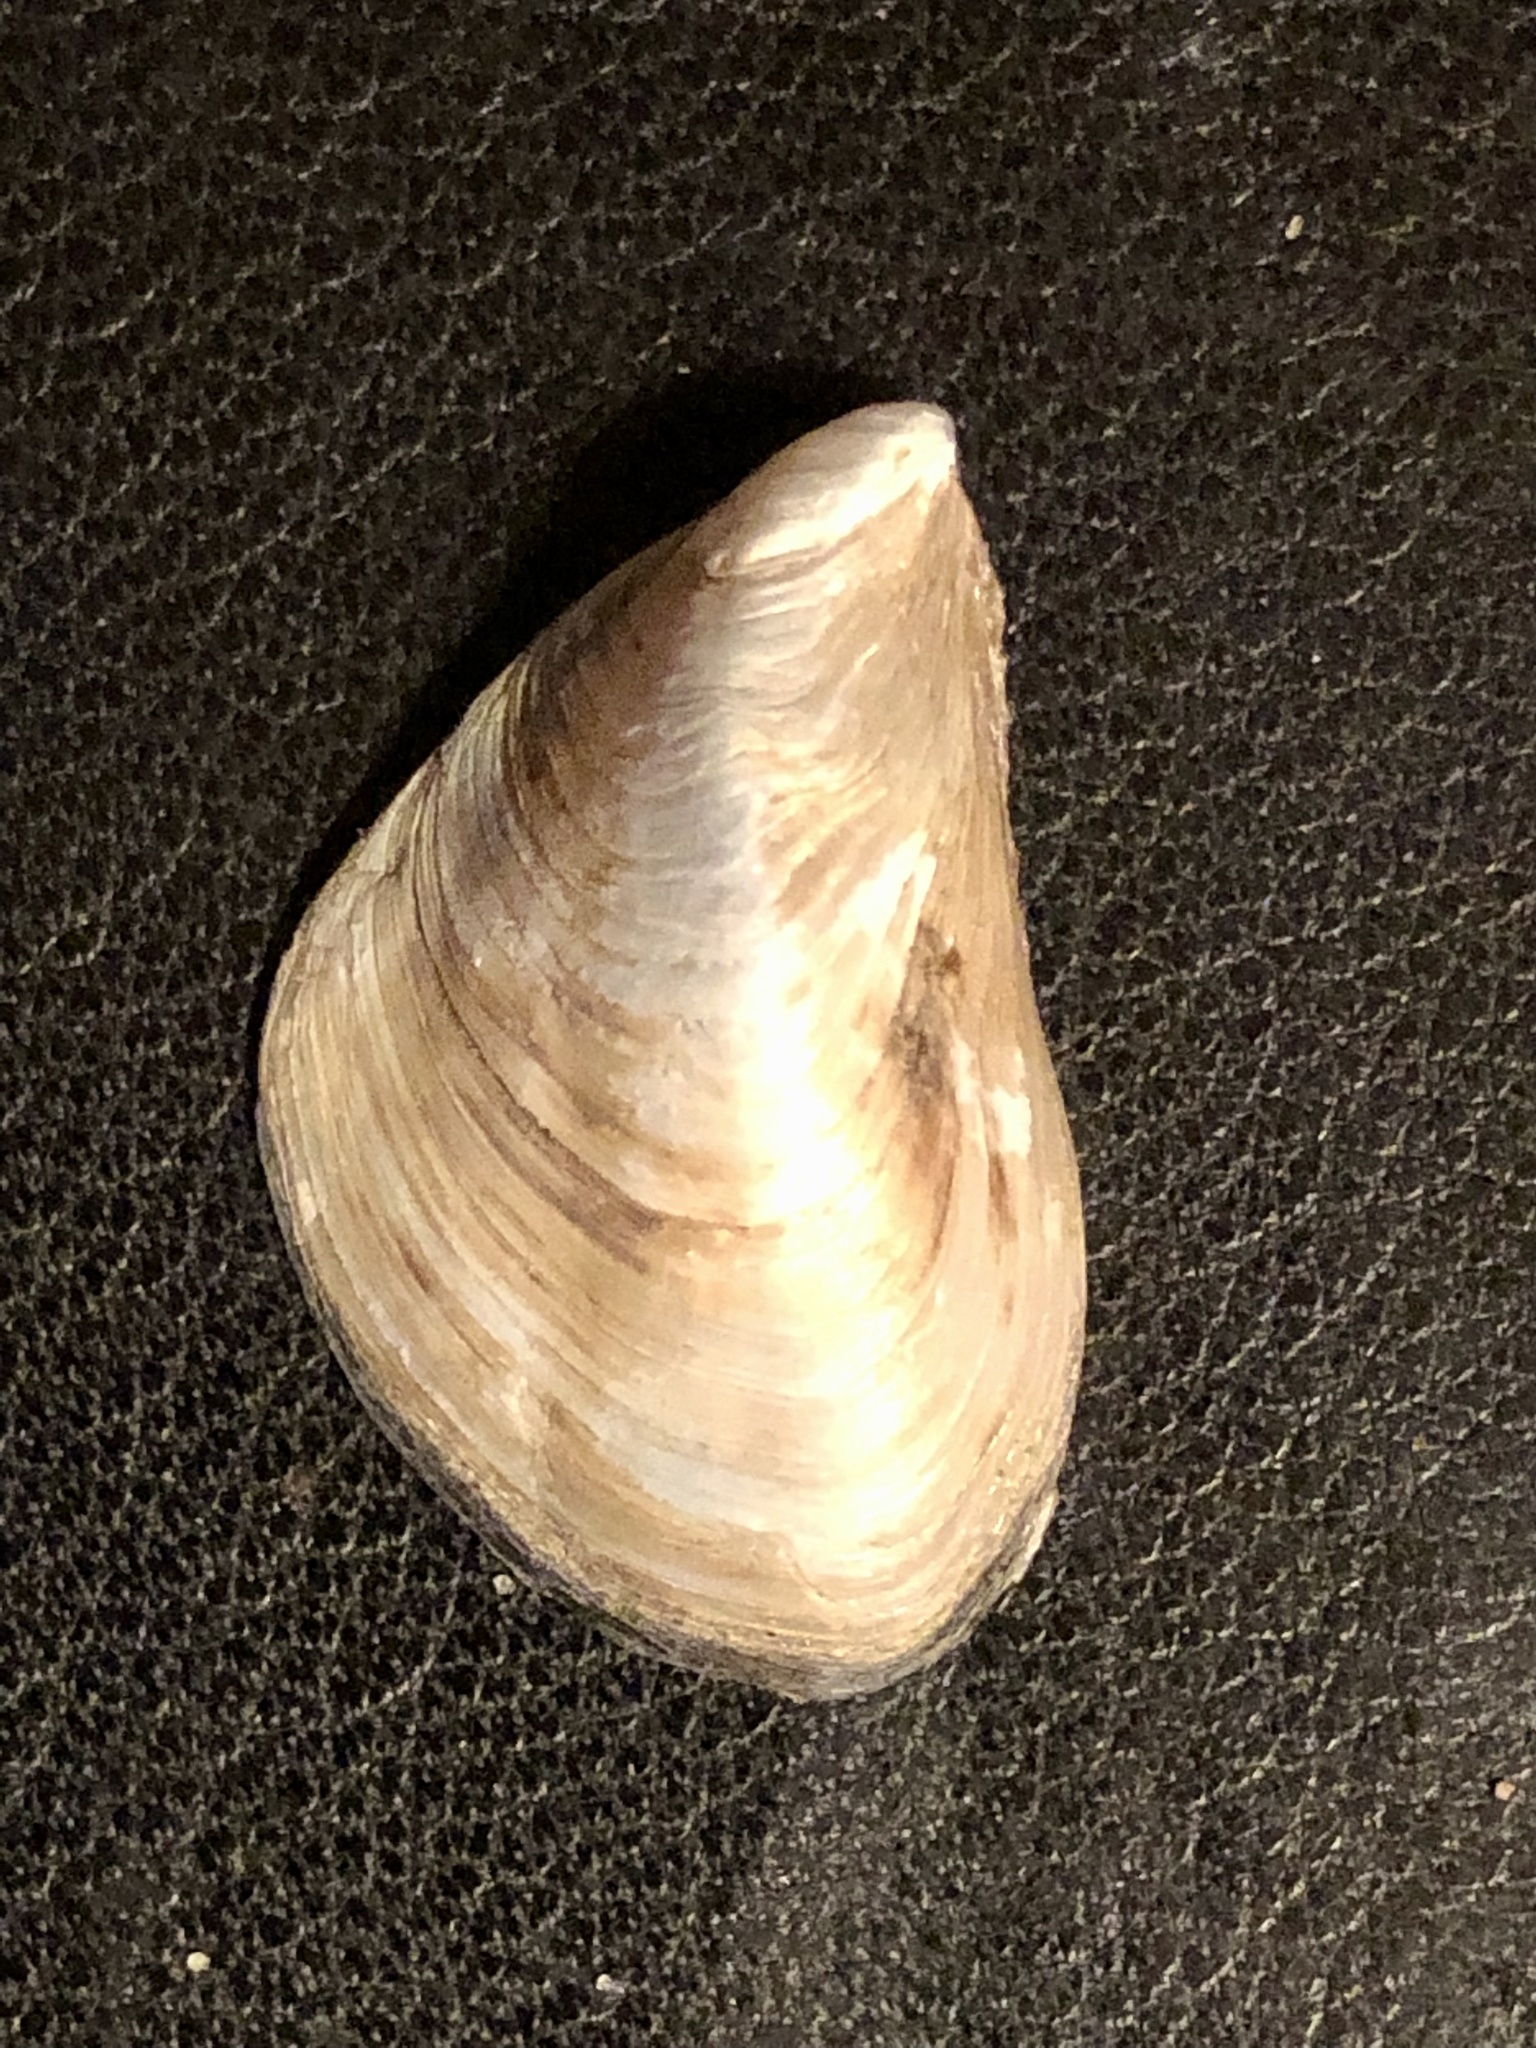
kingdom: Animalia
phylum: Mollusca
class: Bivalvia
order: Myida
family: Dreissenidae
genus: Dreissena
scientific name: Dreissena bugensis
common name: Quagga mussel
